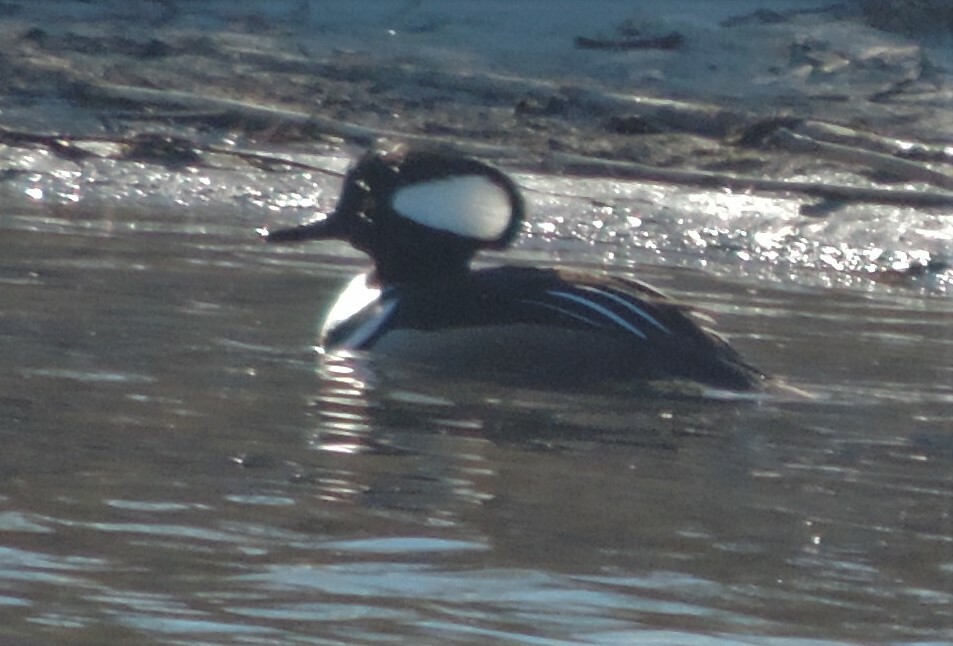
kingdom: Animalia
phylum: Chordata
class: Aves
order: Anseriformes
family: Anatidae
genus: Lophodytes
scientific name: Lophodytes cucullatus
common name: Hooded merganser
